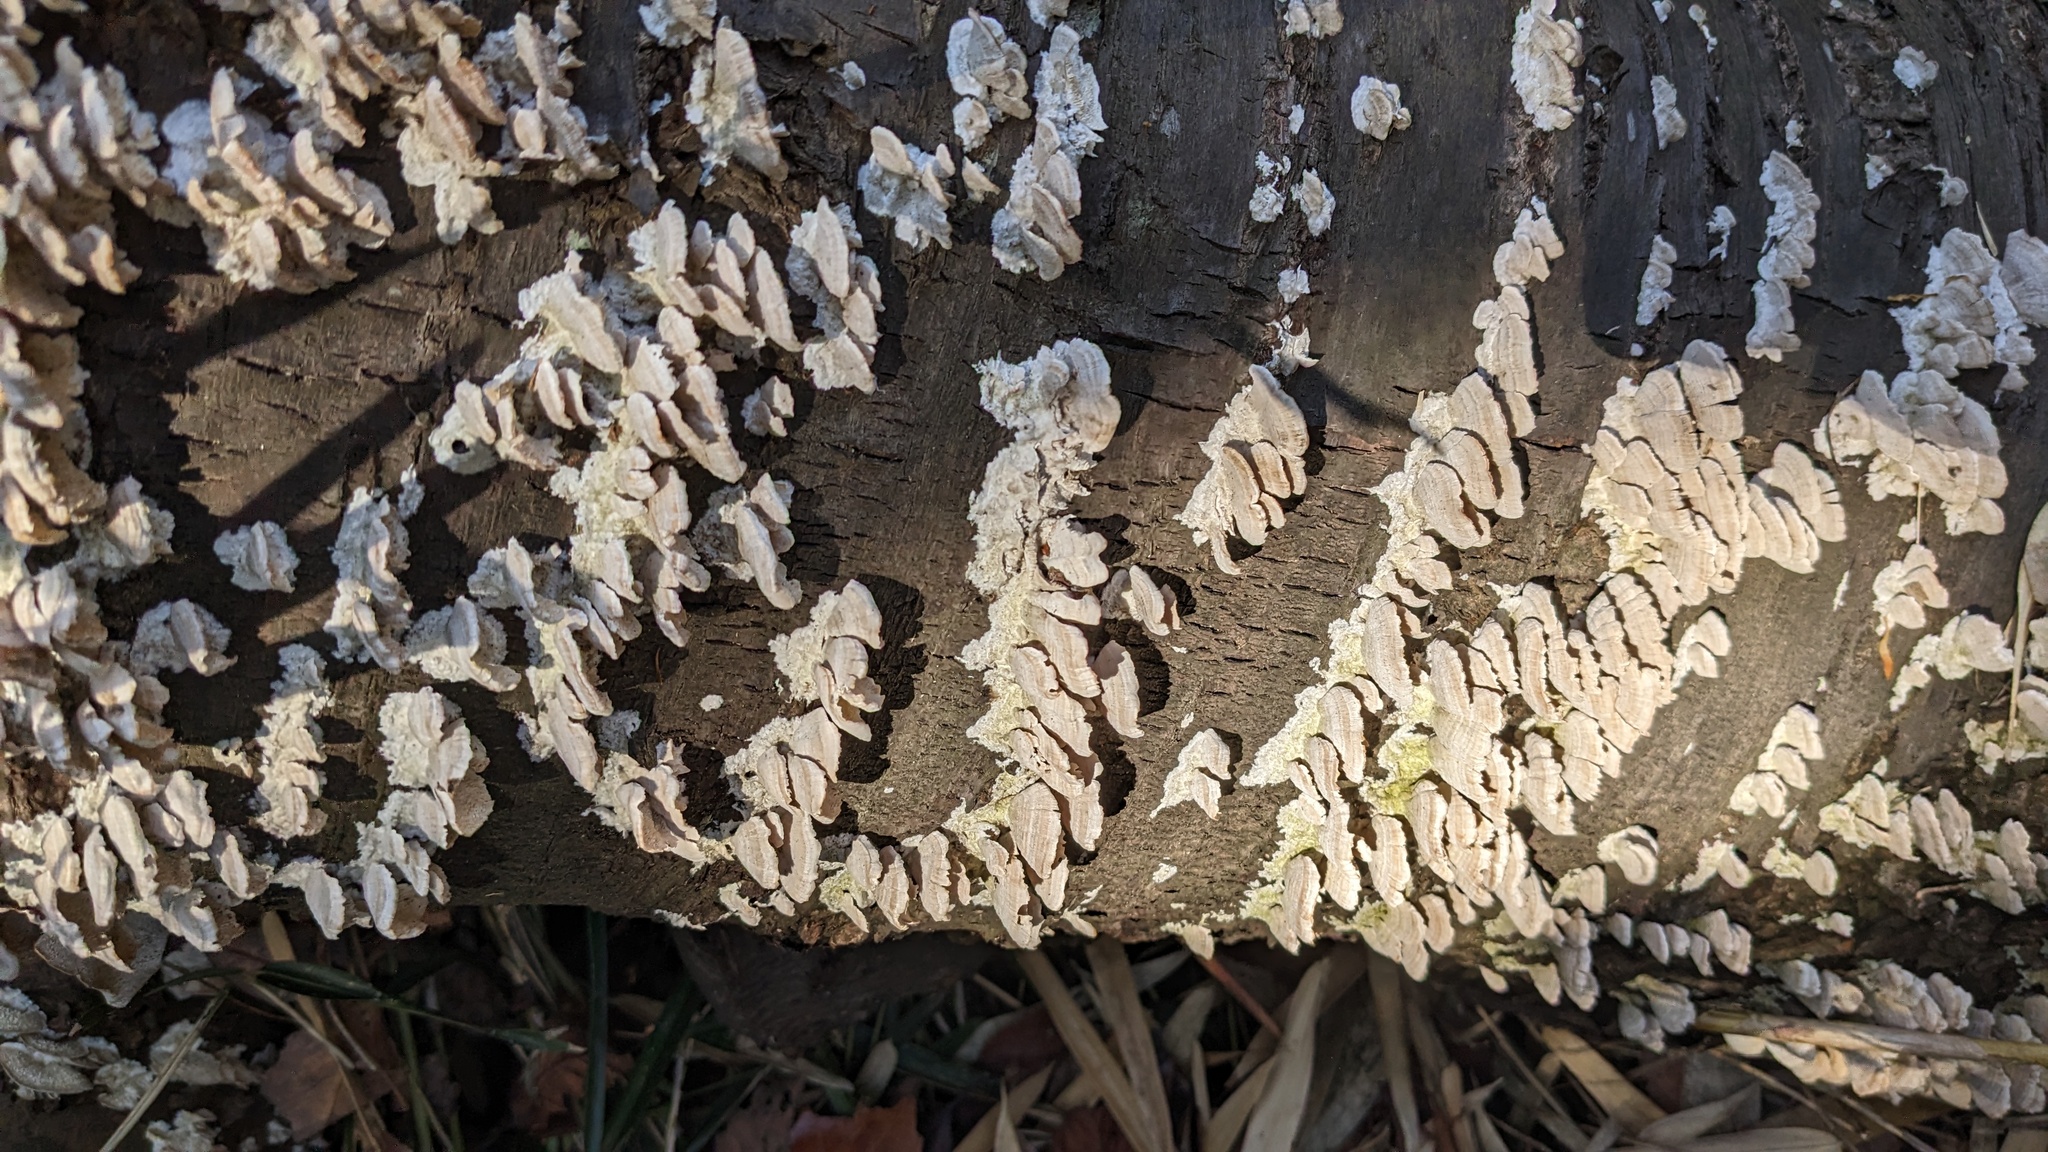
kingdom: Fungi
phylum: Basidiomycota
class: Agaricomycetes
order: Hymenochaetales
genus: Trichaptum
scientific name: Trichaptum biforme
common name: Violet-toothed polypore
